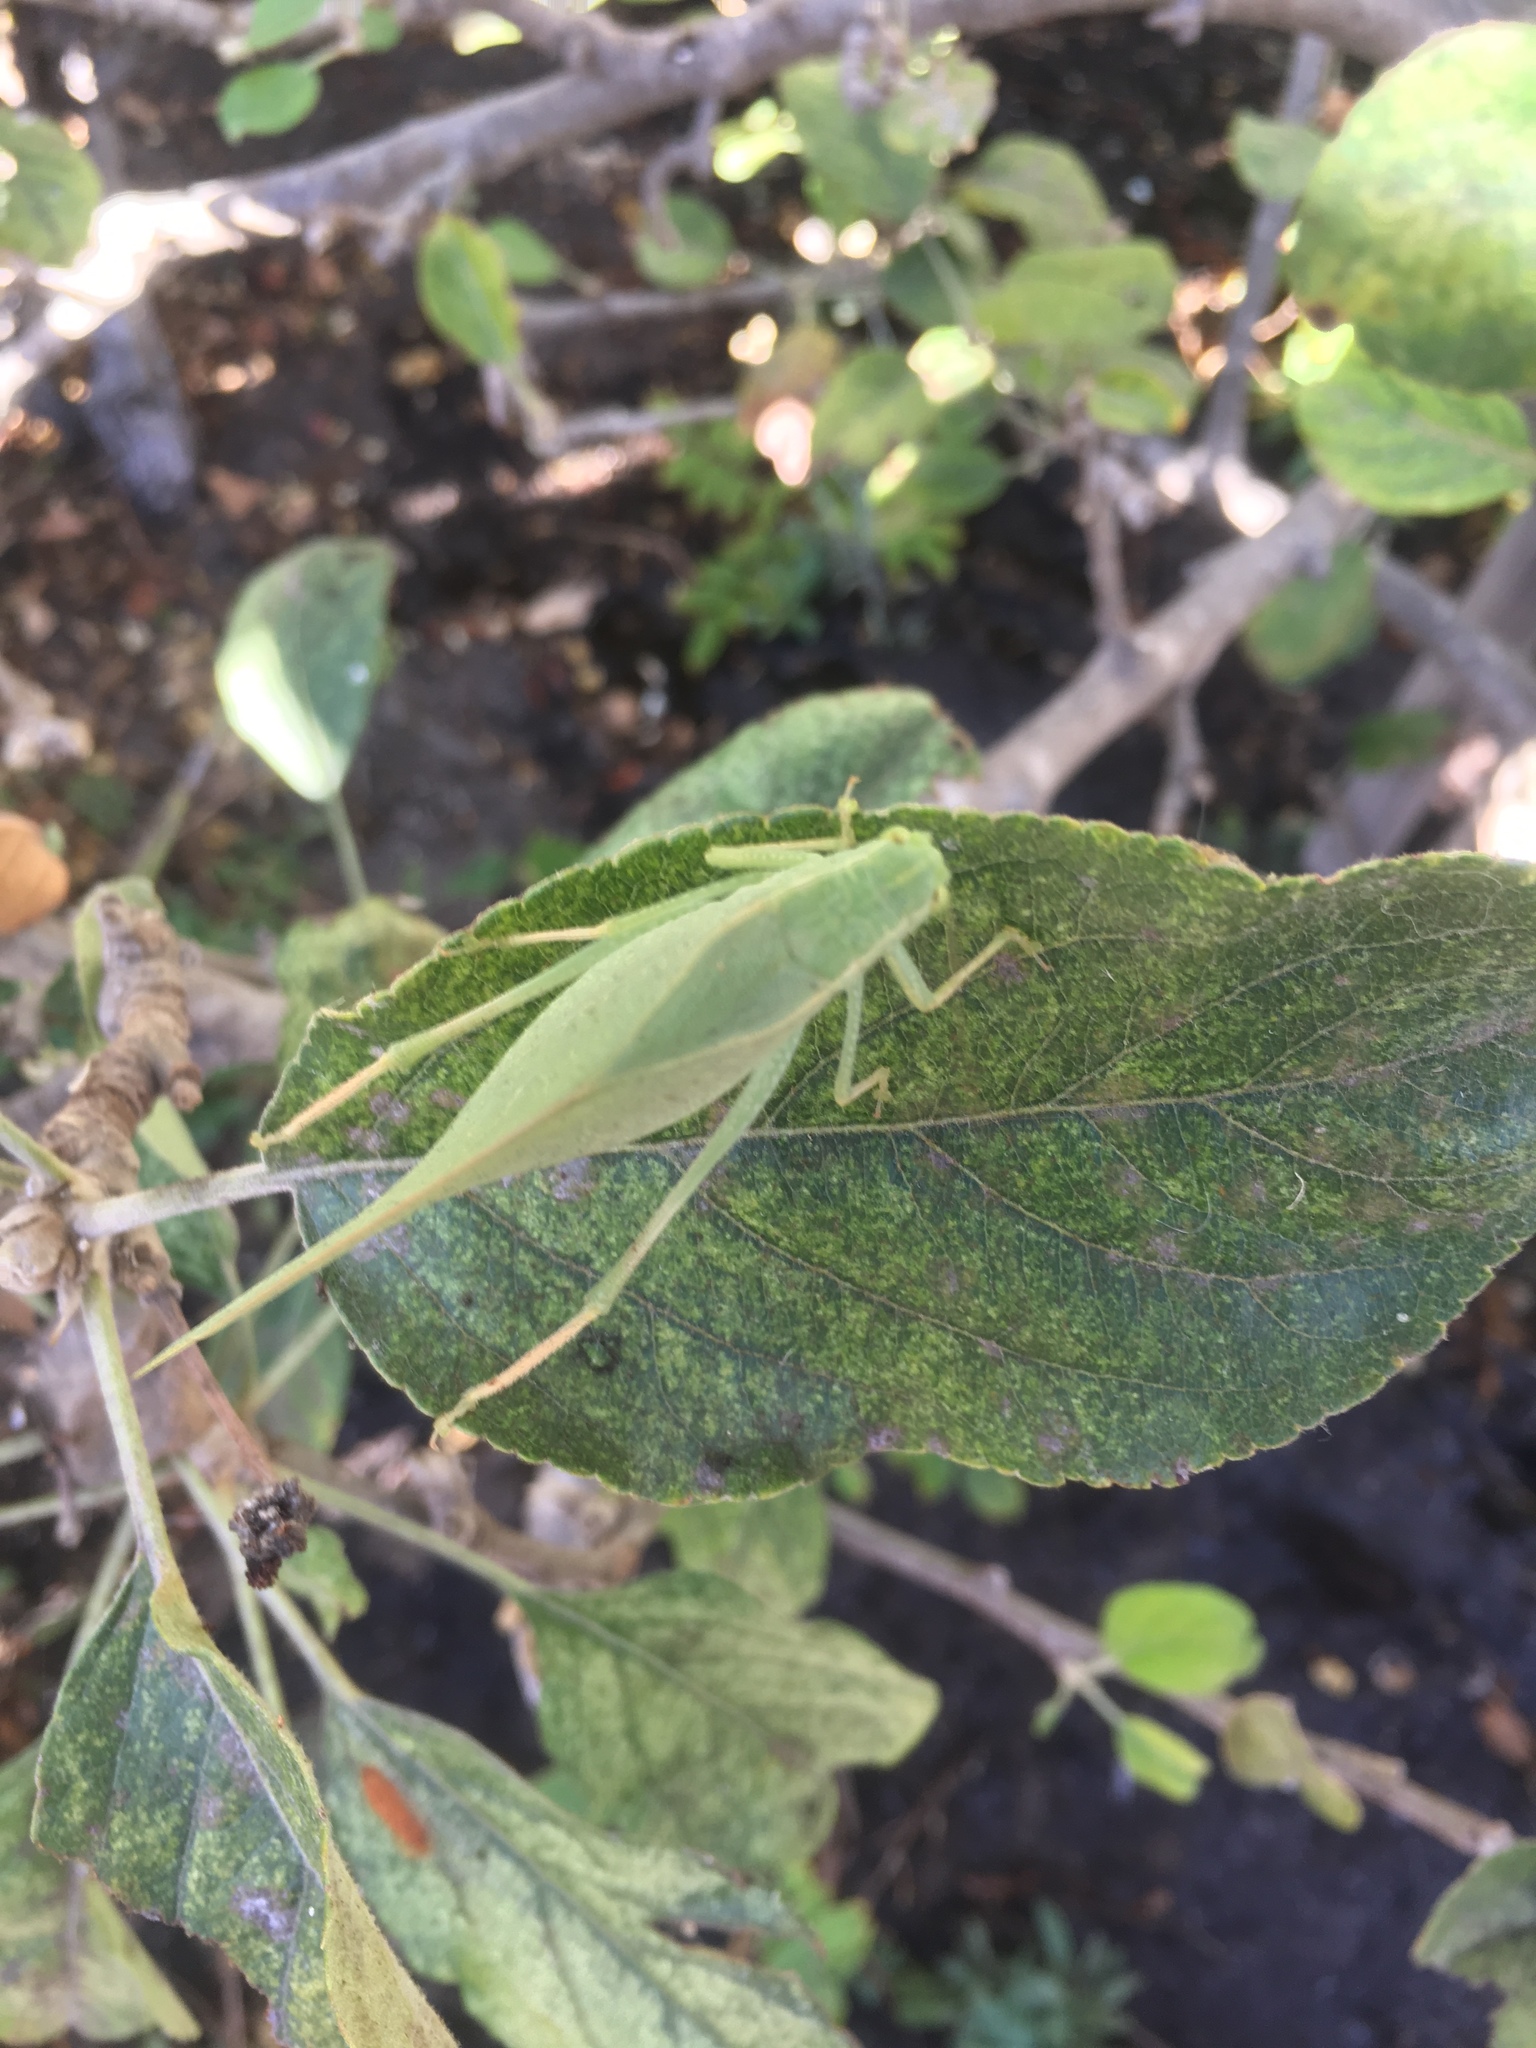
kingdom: Animalia
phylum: Arthropoda
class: Insecta
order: Orthoptera
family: Tettigoniidae
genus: Microcentrum
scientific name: Microcentrum
